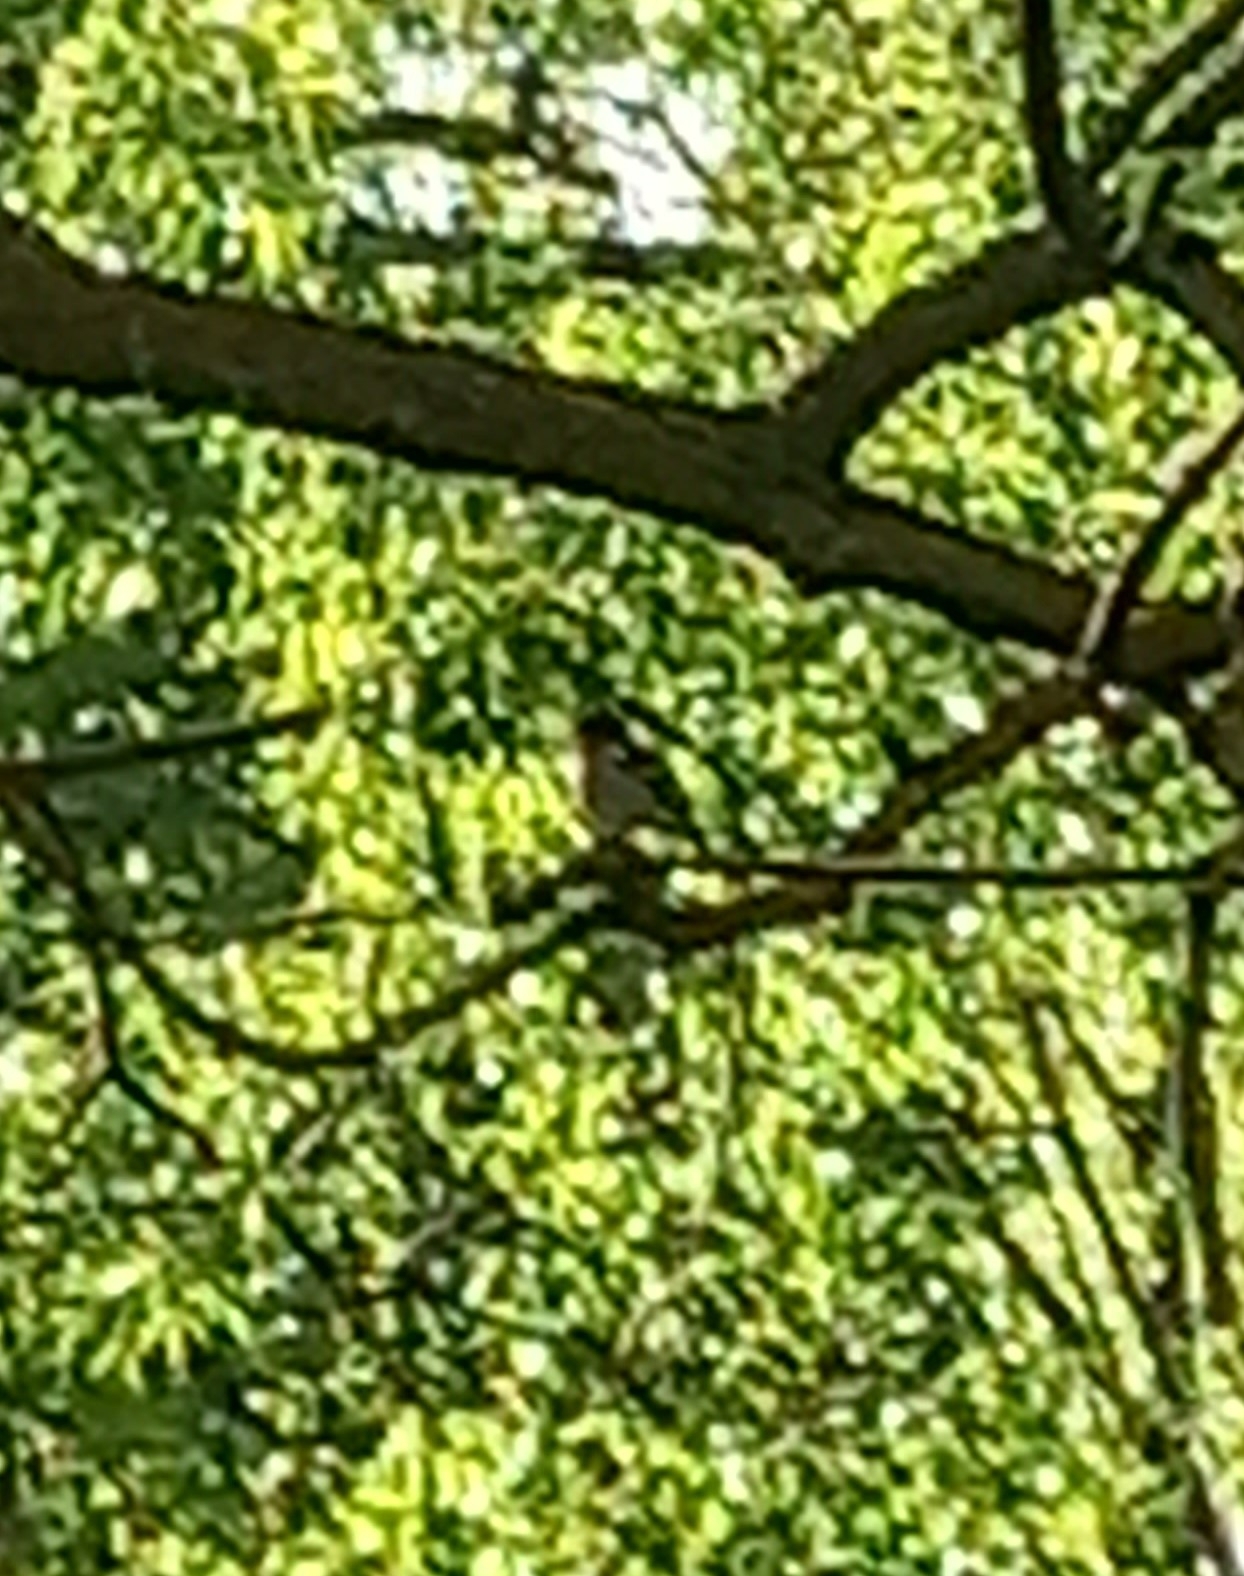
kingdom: Animalia
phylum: Chordata
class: Aves
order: Passeriformes
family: Fringillidae
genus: Fringilla
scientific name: Fringilla coelebs
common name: Common chaffinch
